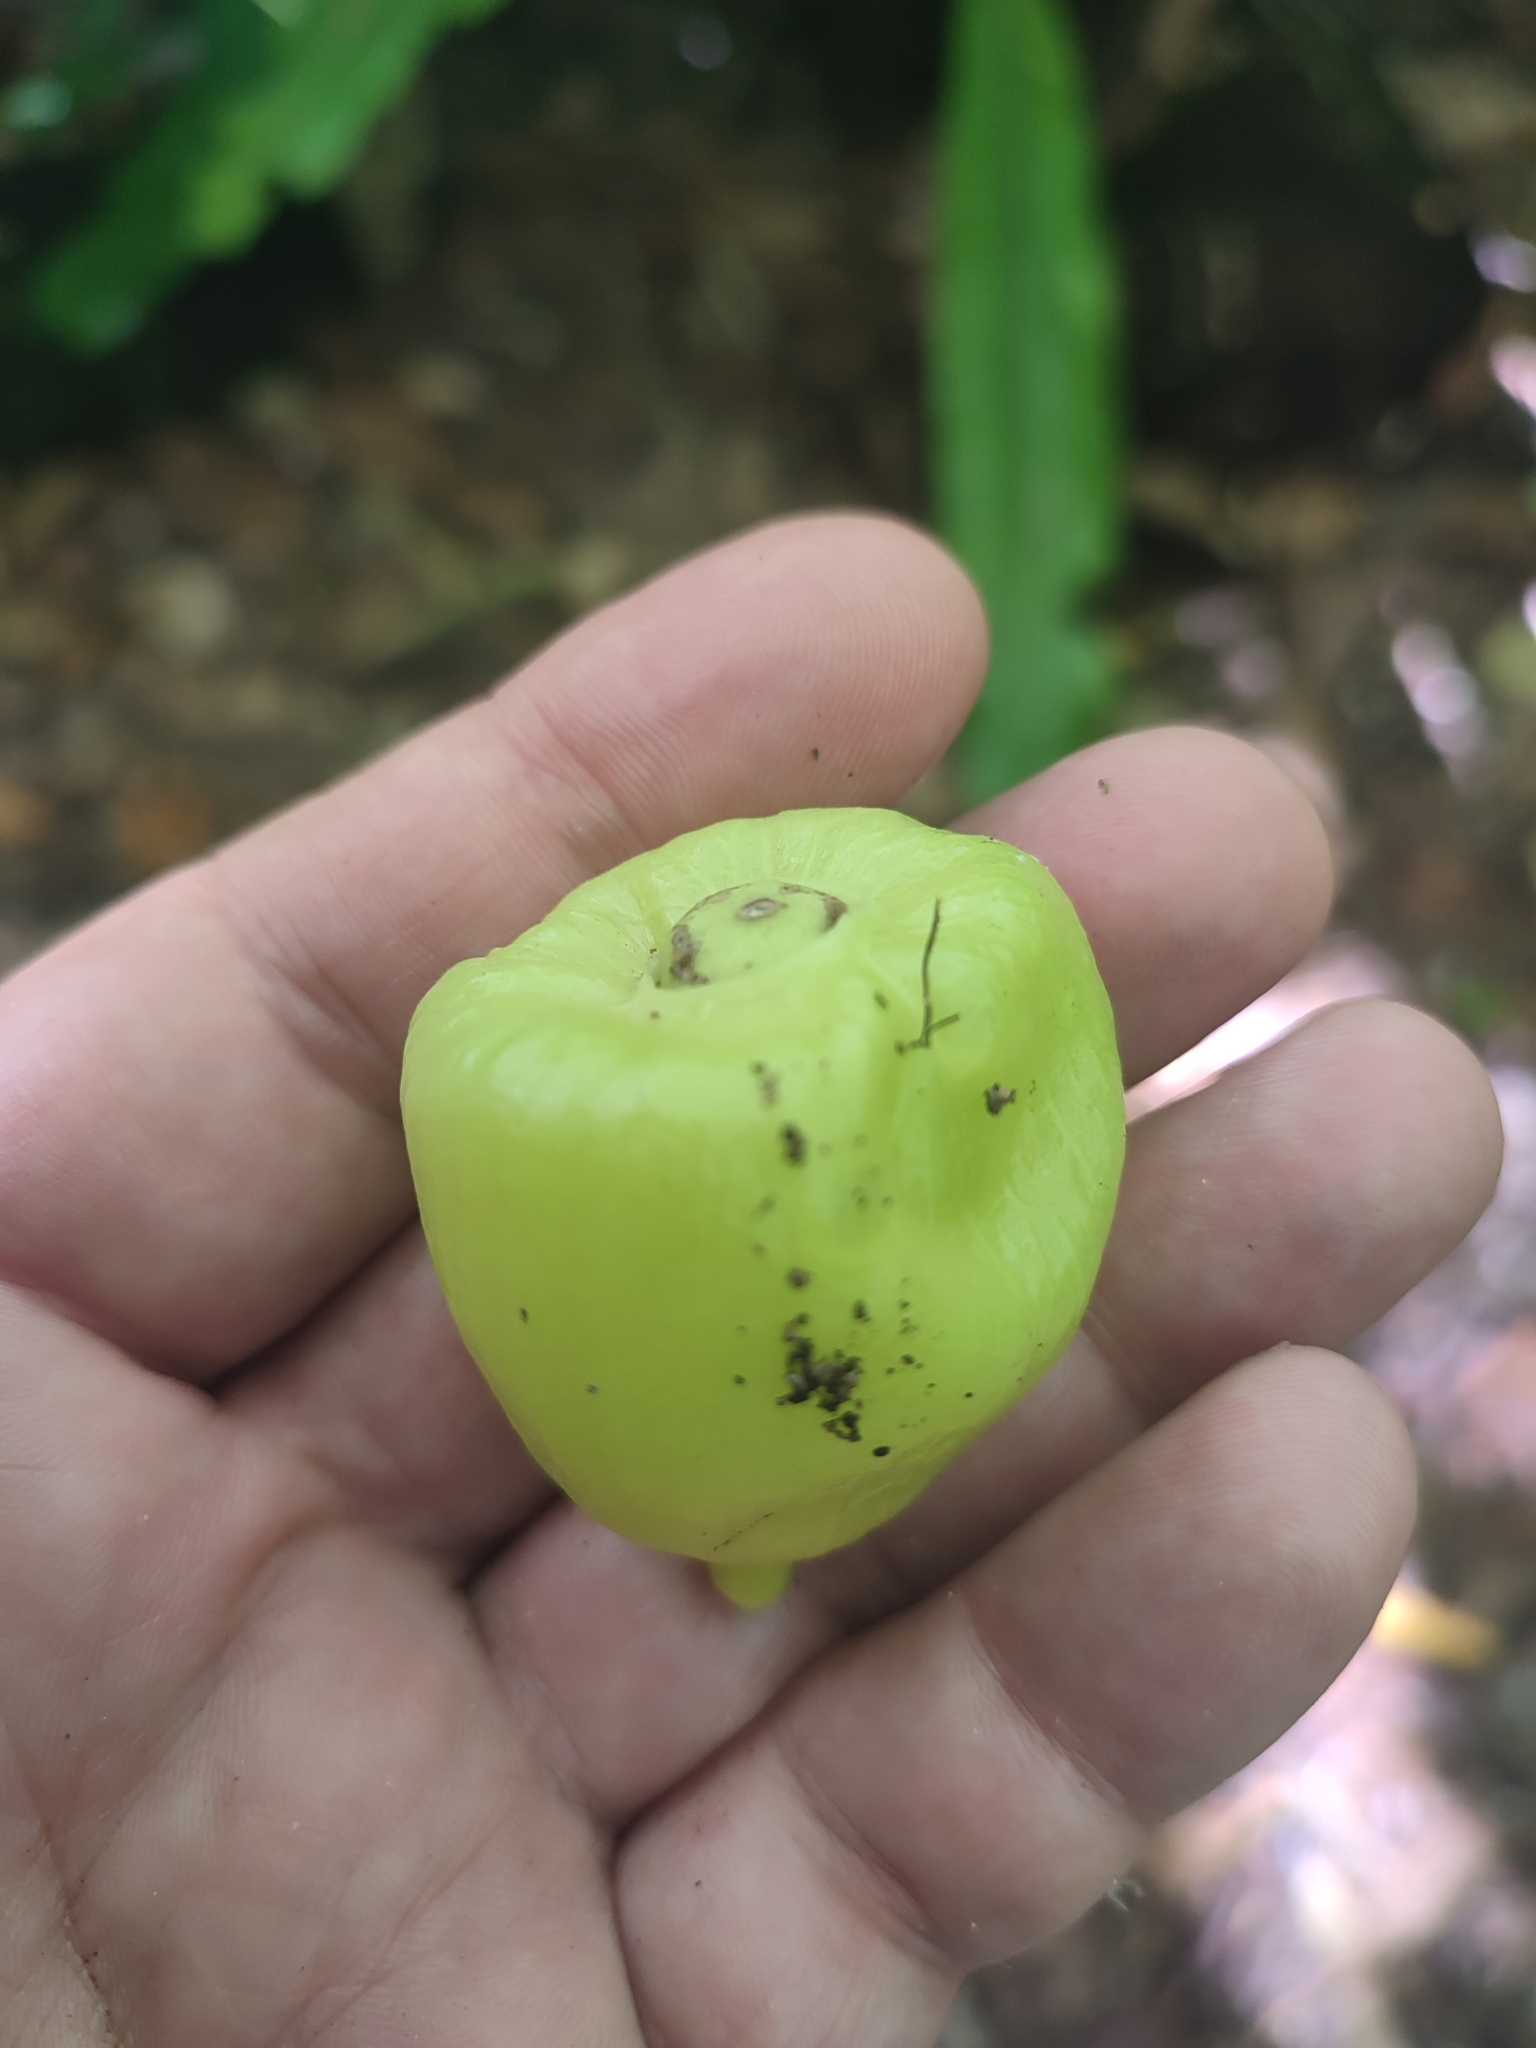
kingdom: Plantae
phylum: Tracheophyta
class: Magnoliopsida
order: Laurales
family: Hernandiaceae
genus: Hernandia
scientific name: Hernandia nymphaeifolia
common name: Sea hearse
